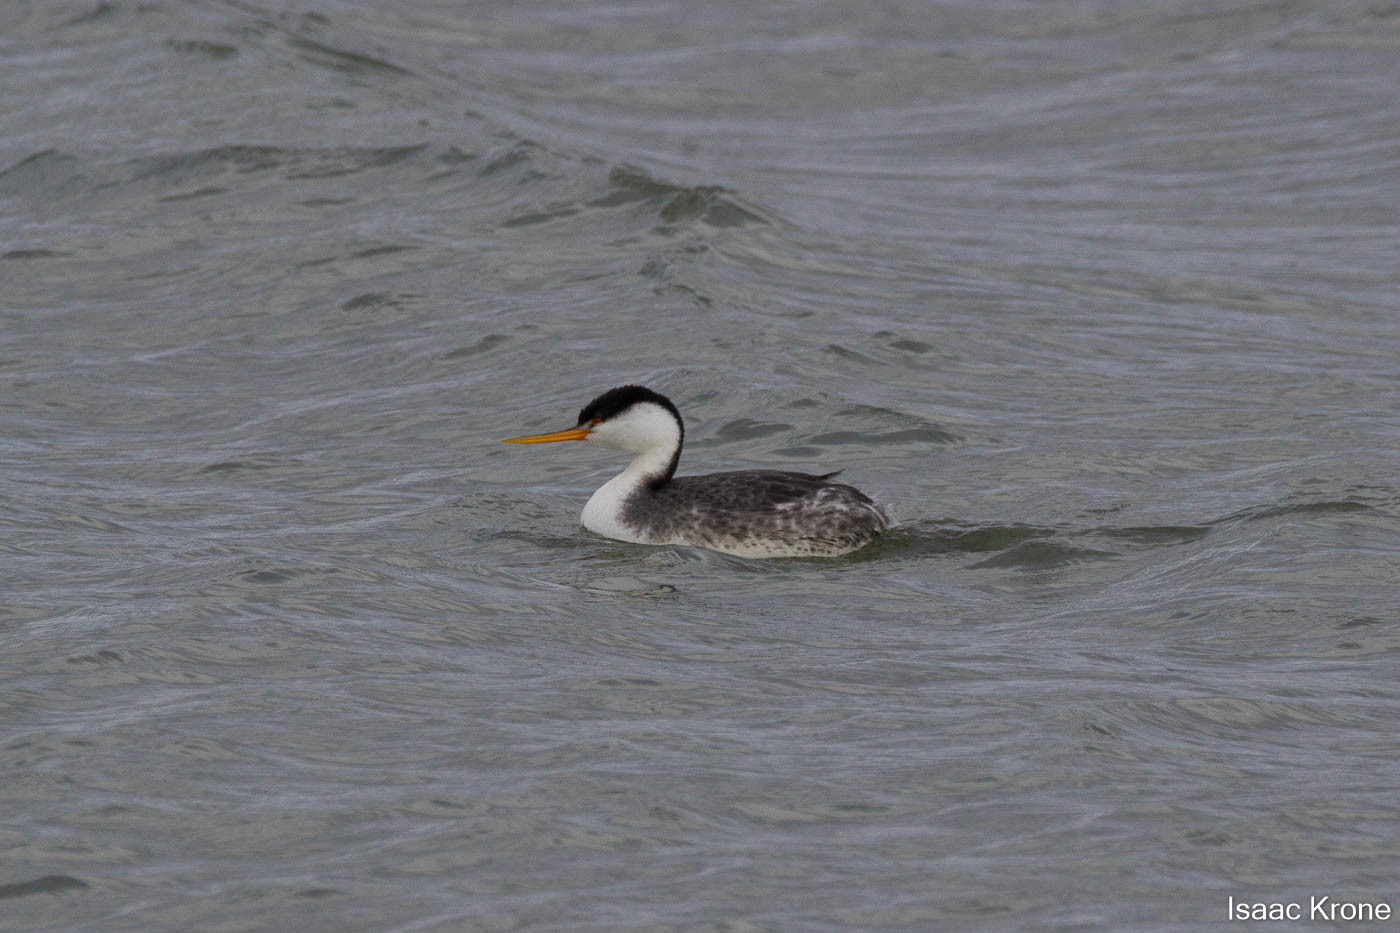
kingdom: Animalia
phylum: Chordata
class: Aves
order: Podicipediformes
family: Podicipedidae
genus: Aechmophorus
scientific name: Aechmophorus occidentalis
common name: Western grebe
